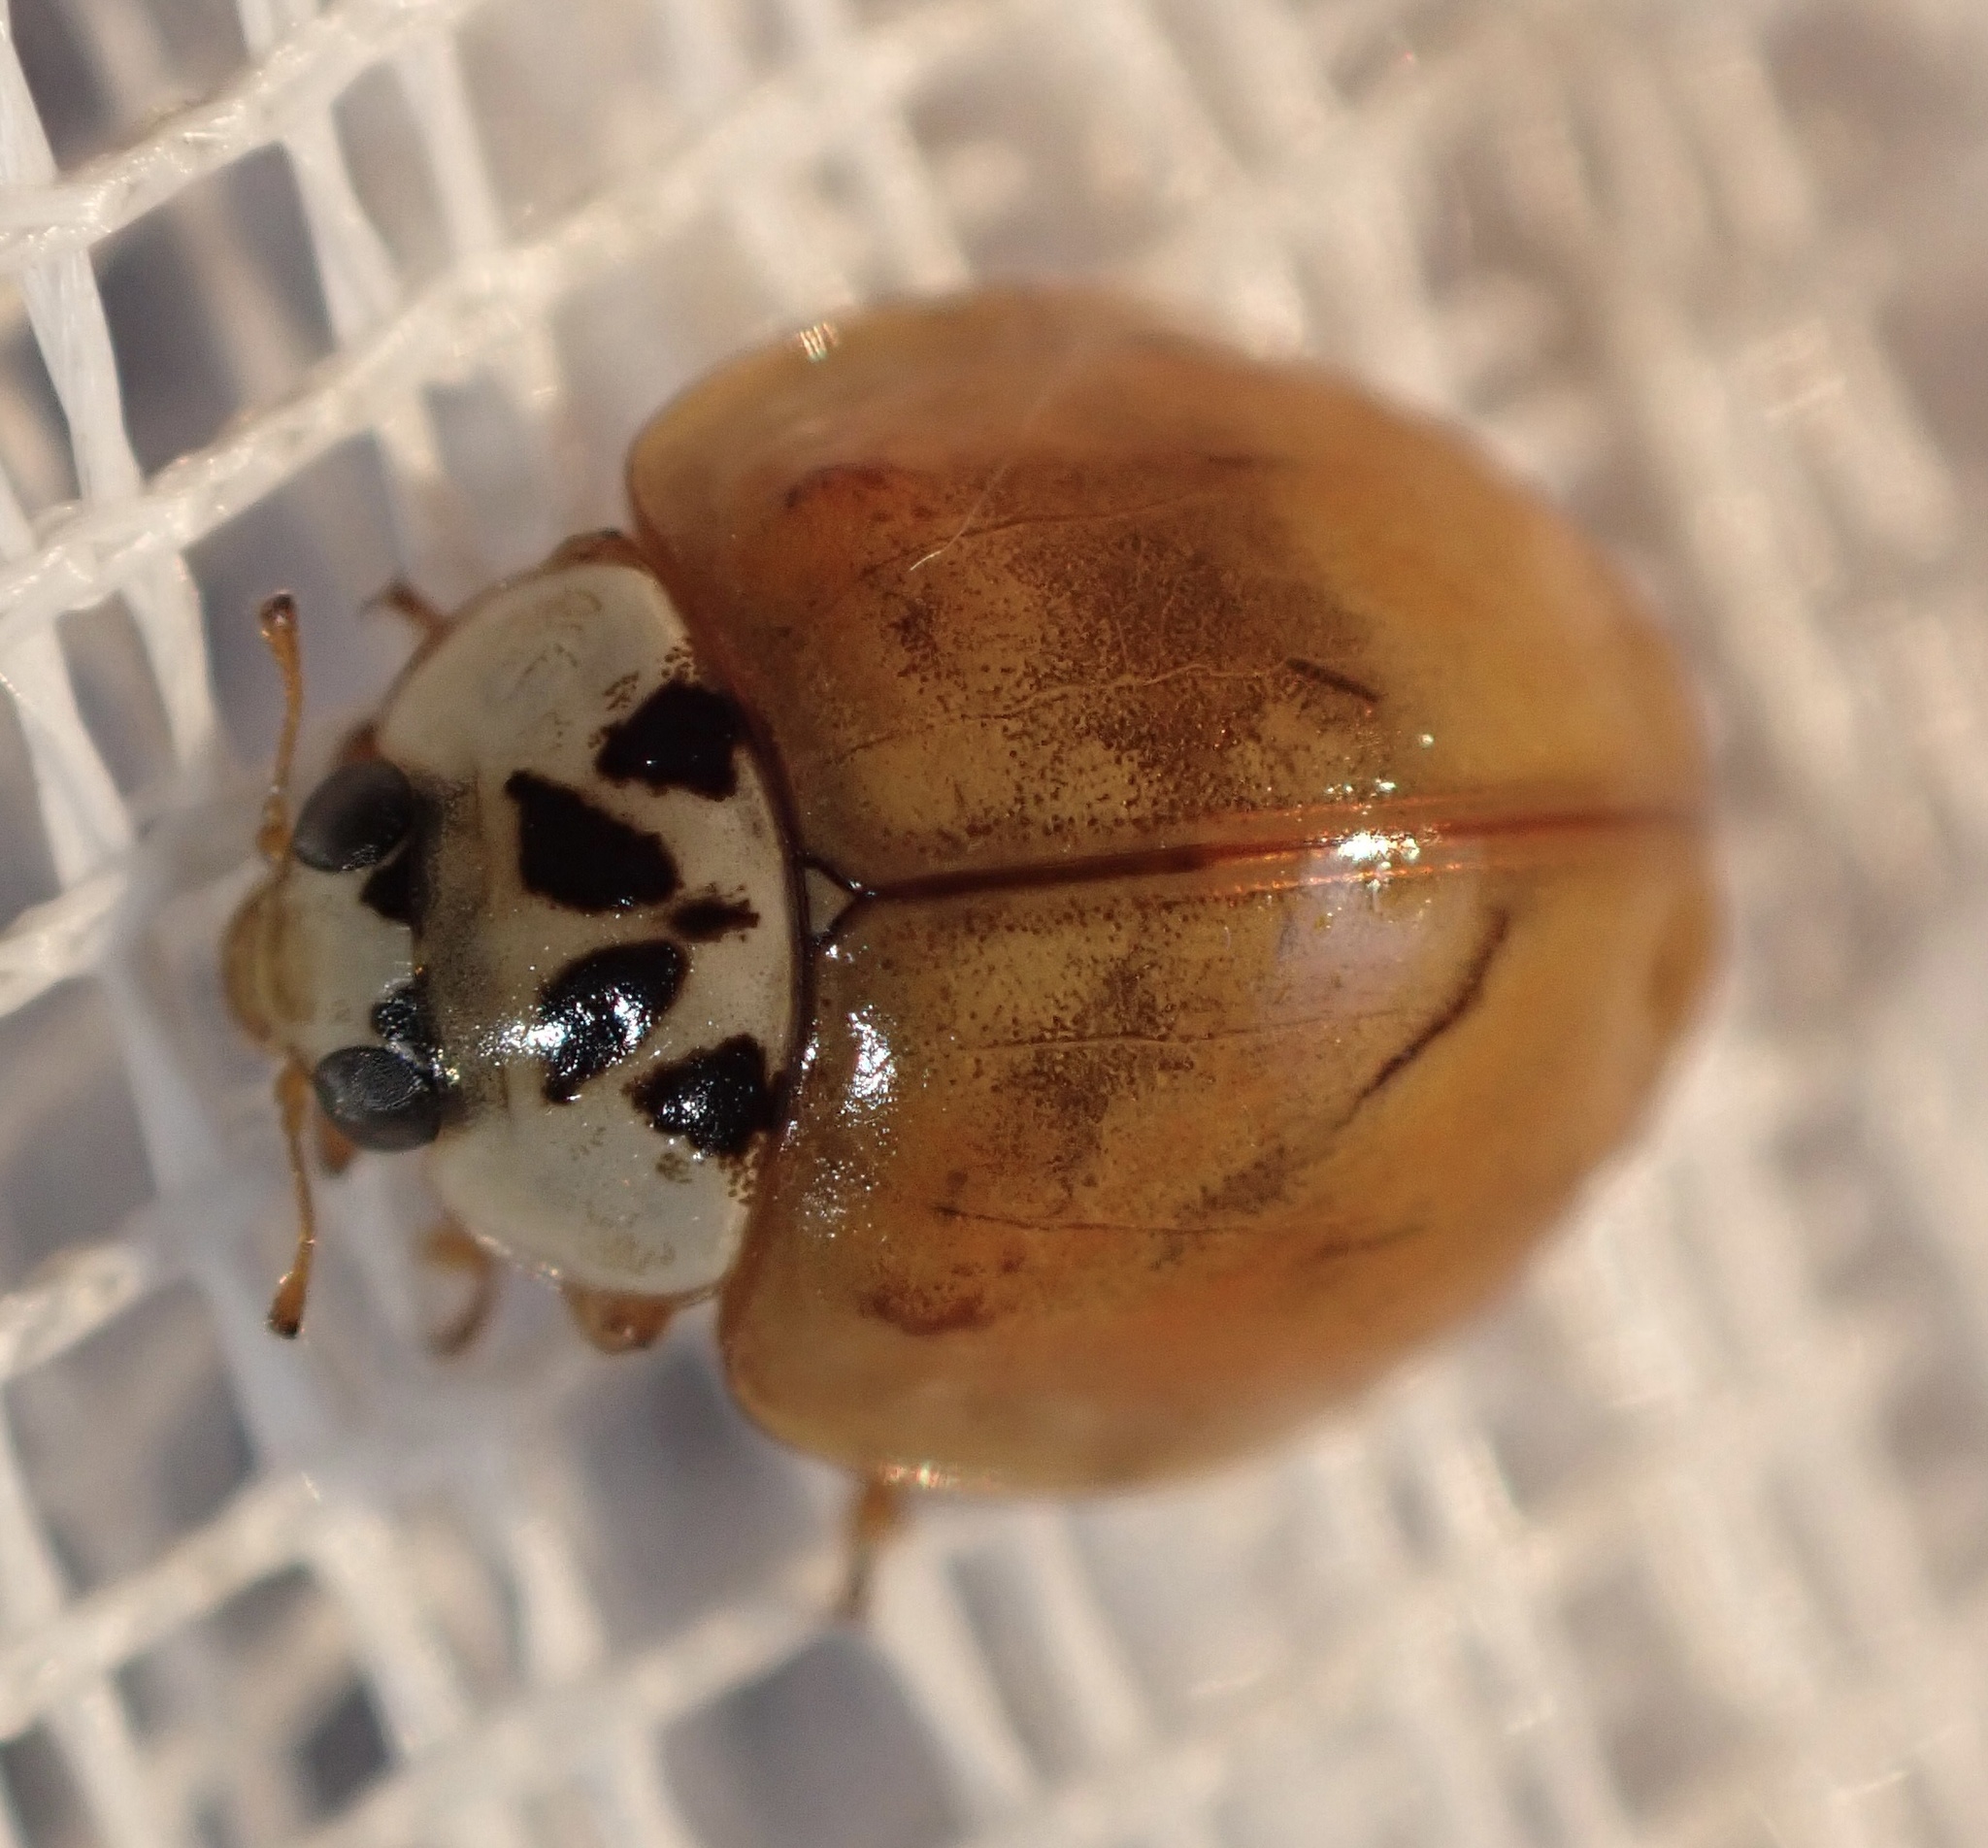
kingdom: Animalia
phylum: Arthropoda
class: Insecta
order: Coleoptera
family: Coccinellidae
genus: Harmonia
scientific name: Harmonia axyridis
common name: Harlequin ladybird
